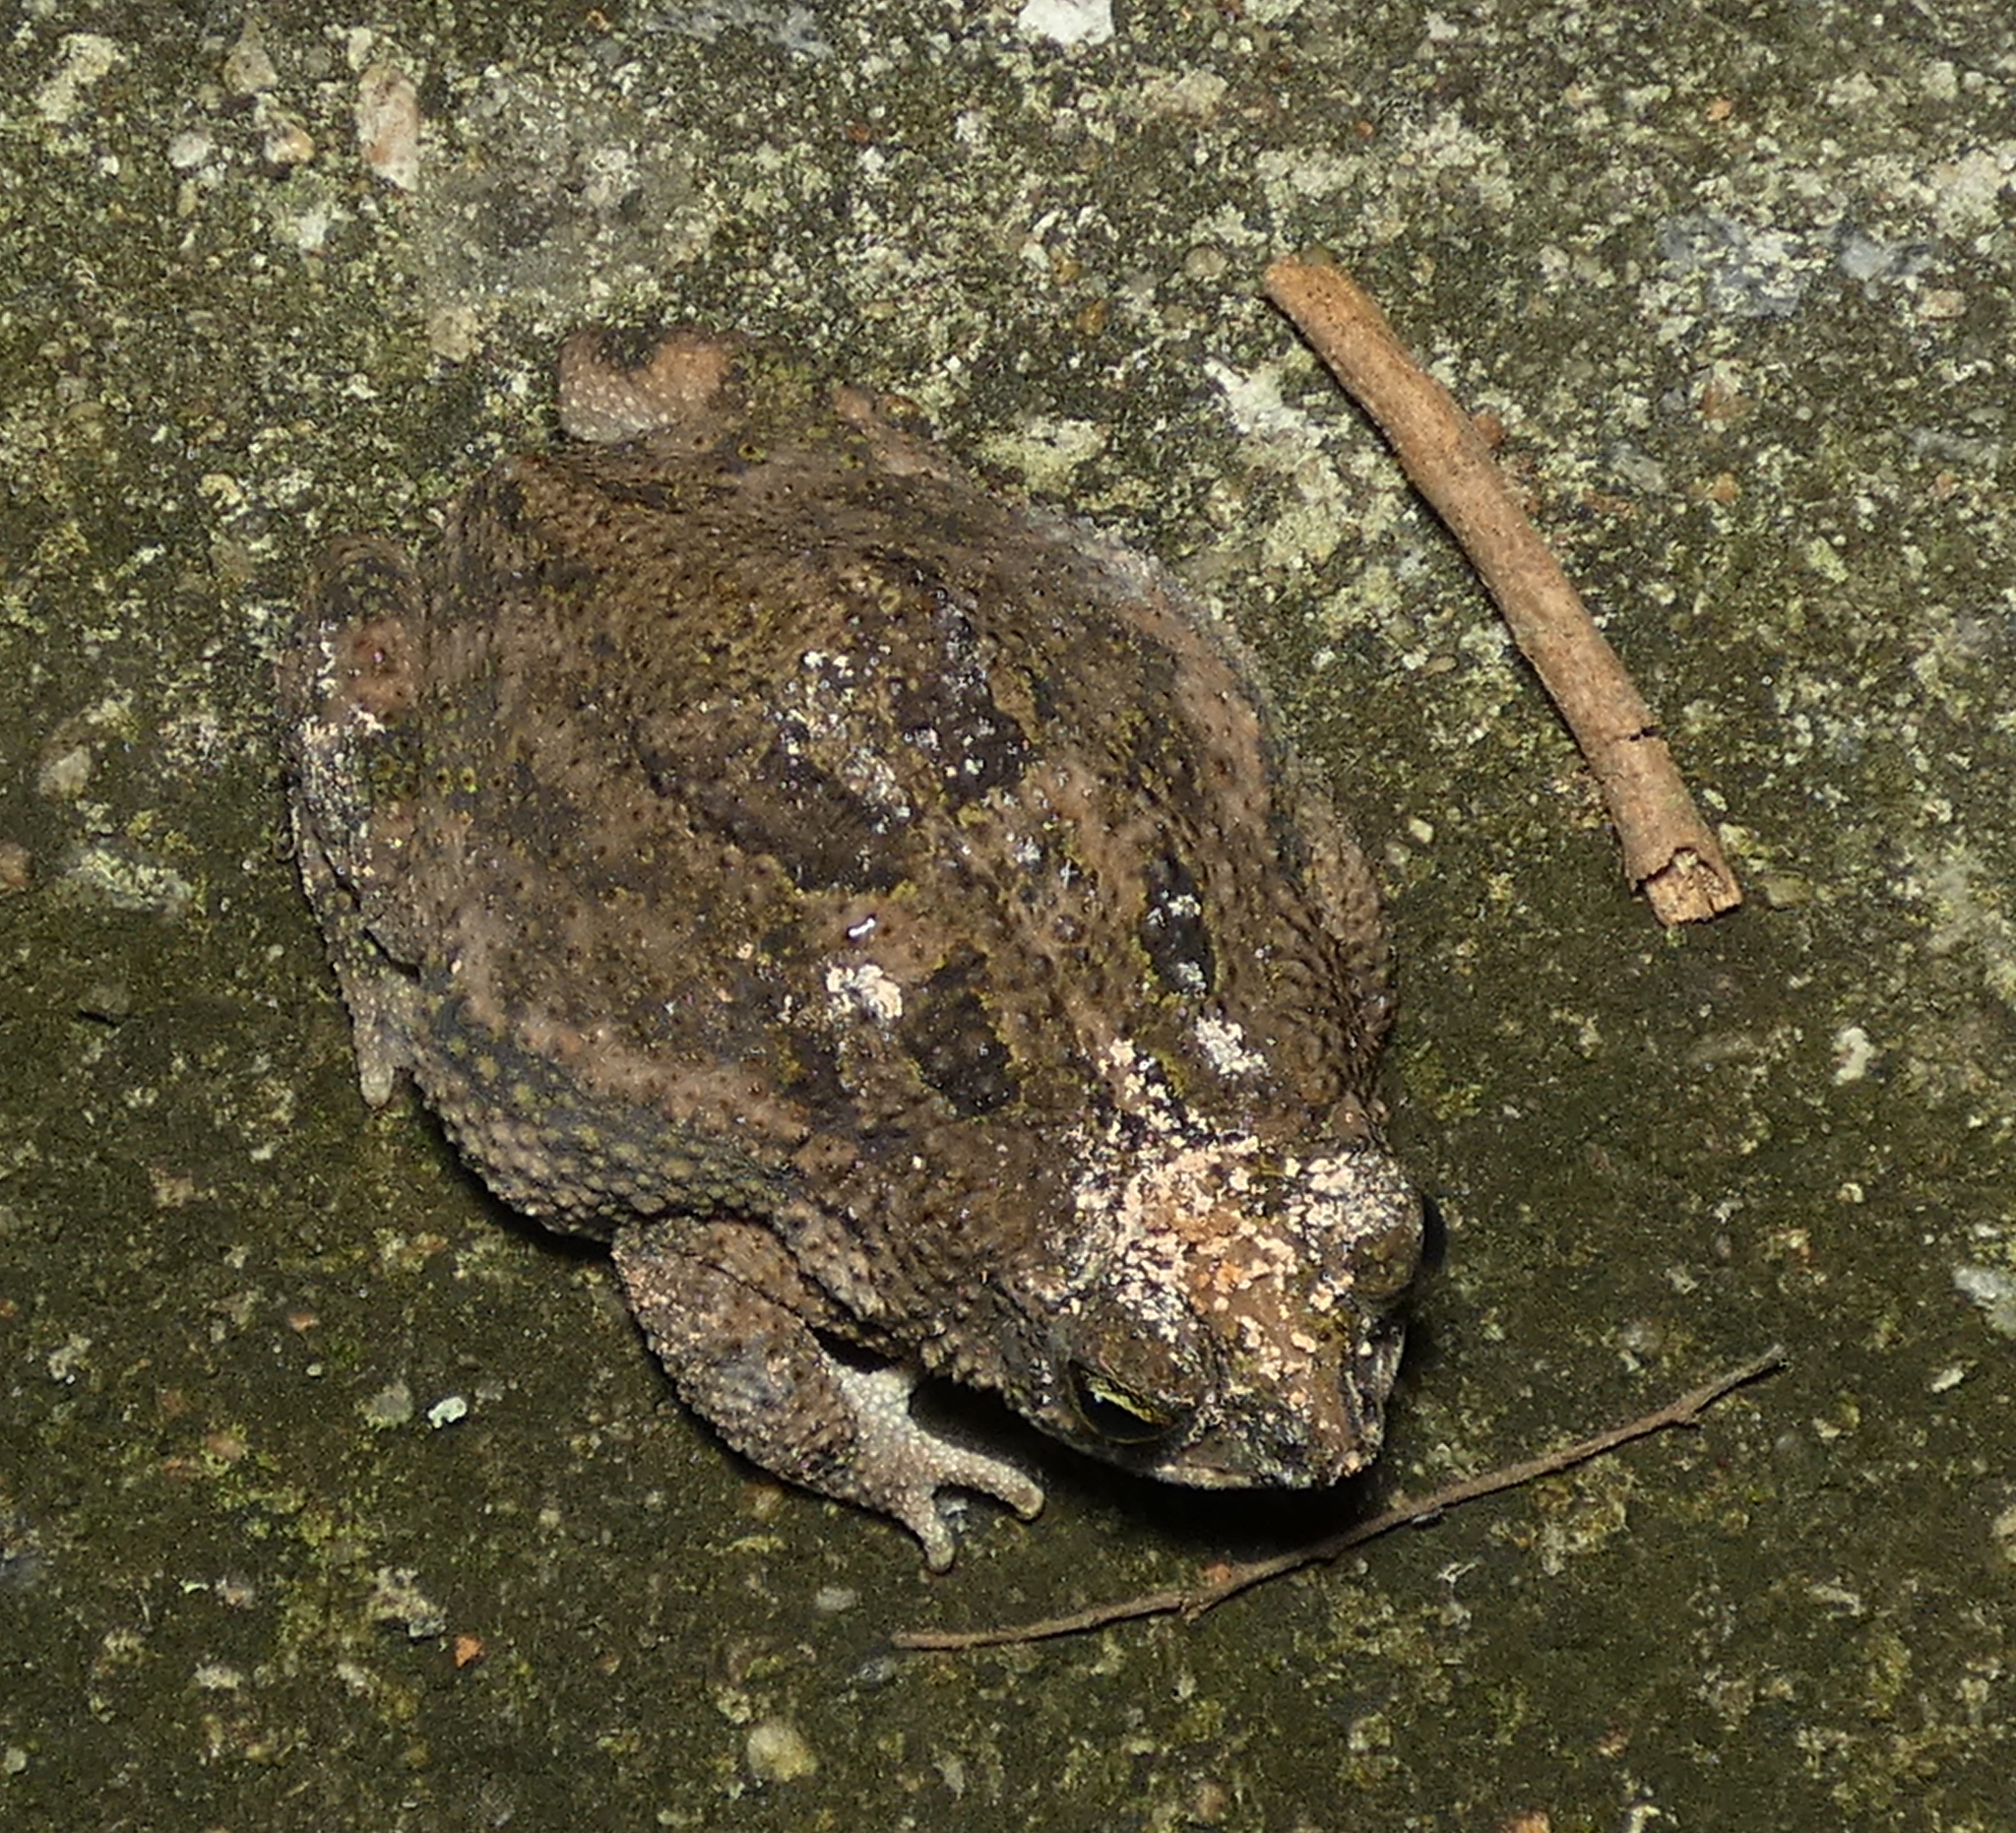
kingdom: Animalia
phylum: Chordata
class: Amphibia
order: Anura
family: Bufonidae
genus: Rhinella
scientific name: Rhinella granulosa
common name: Common lesser toad
